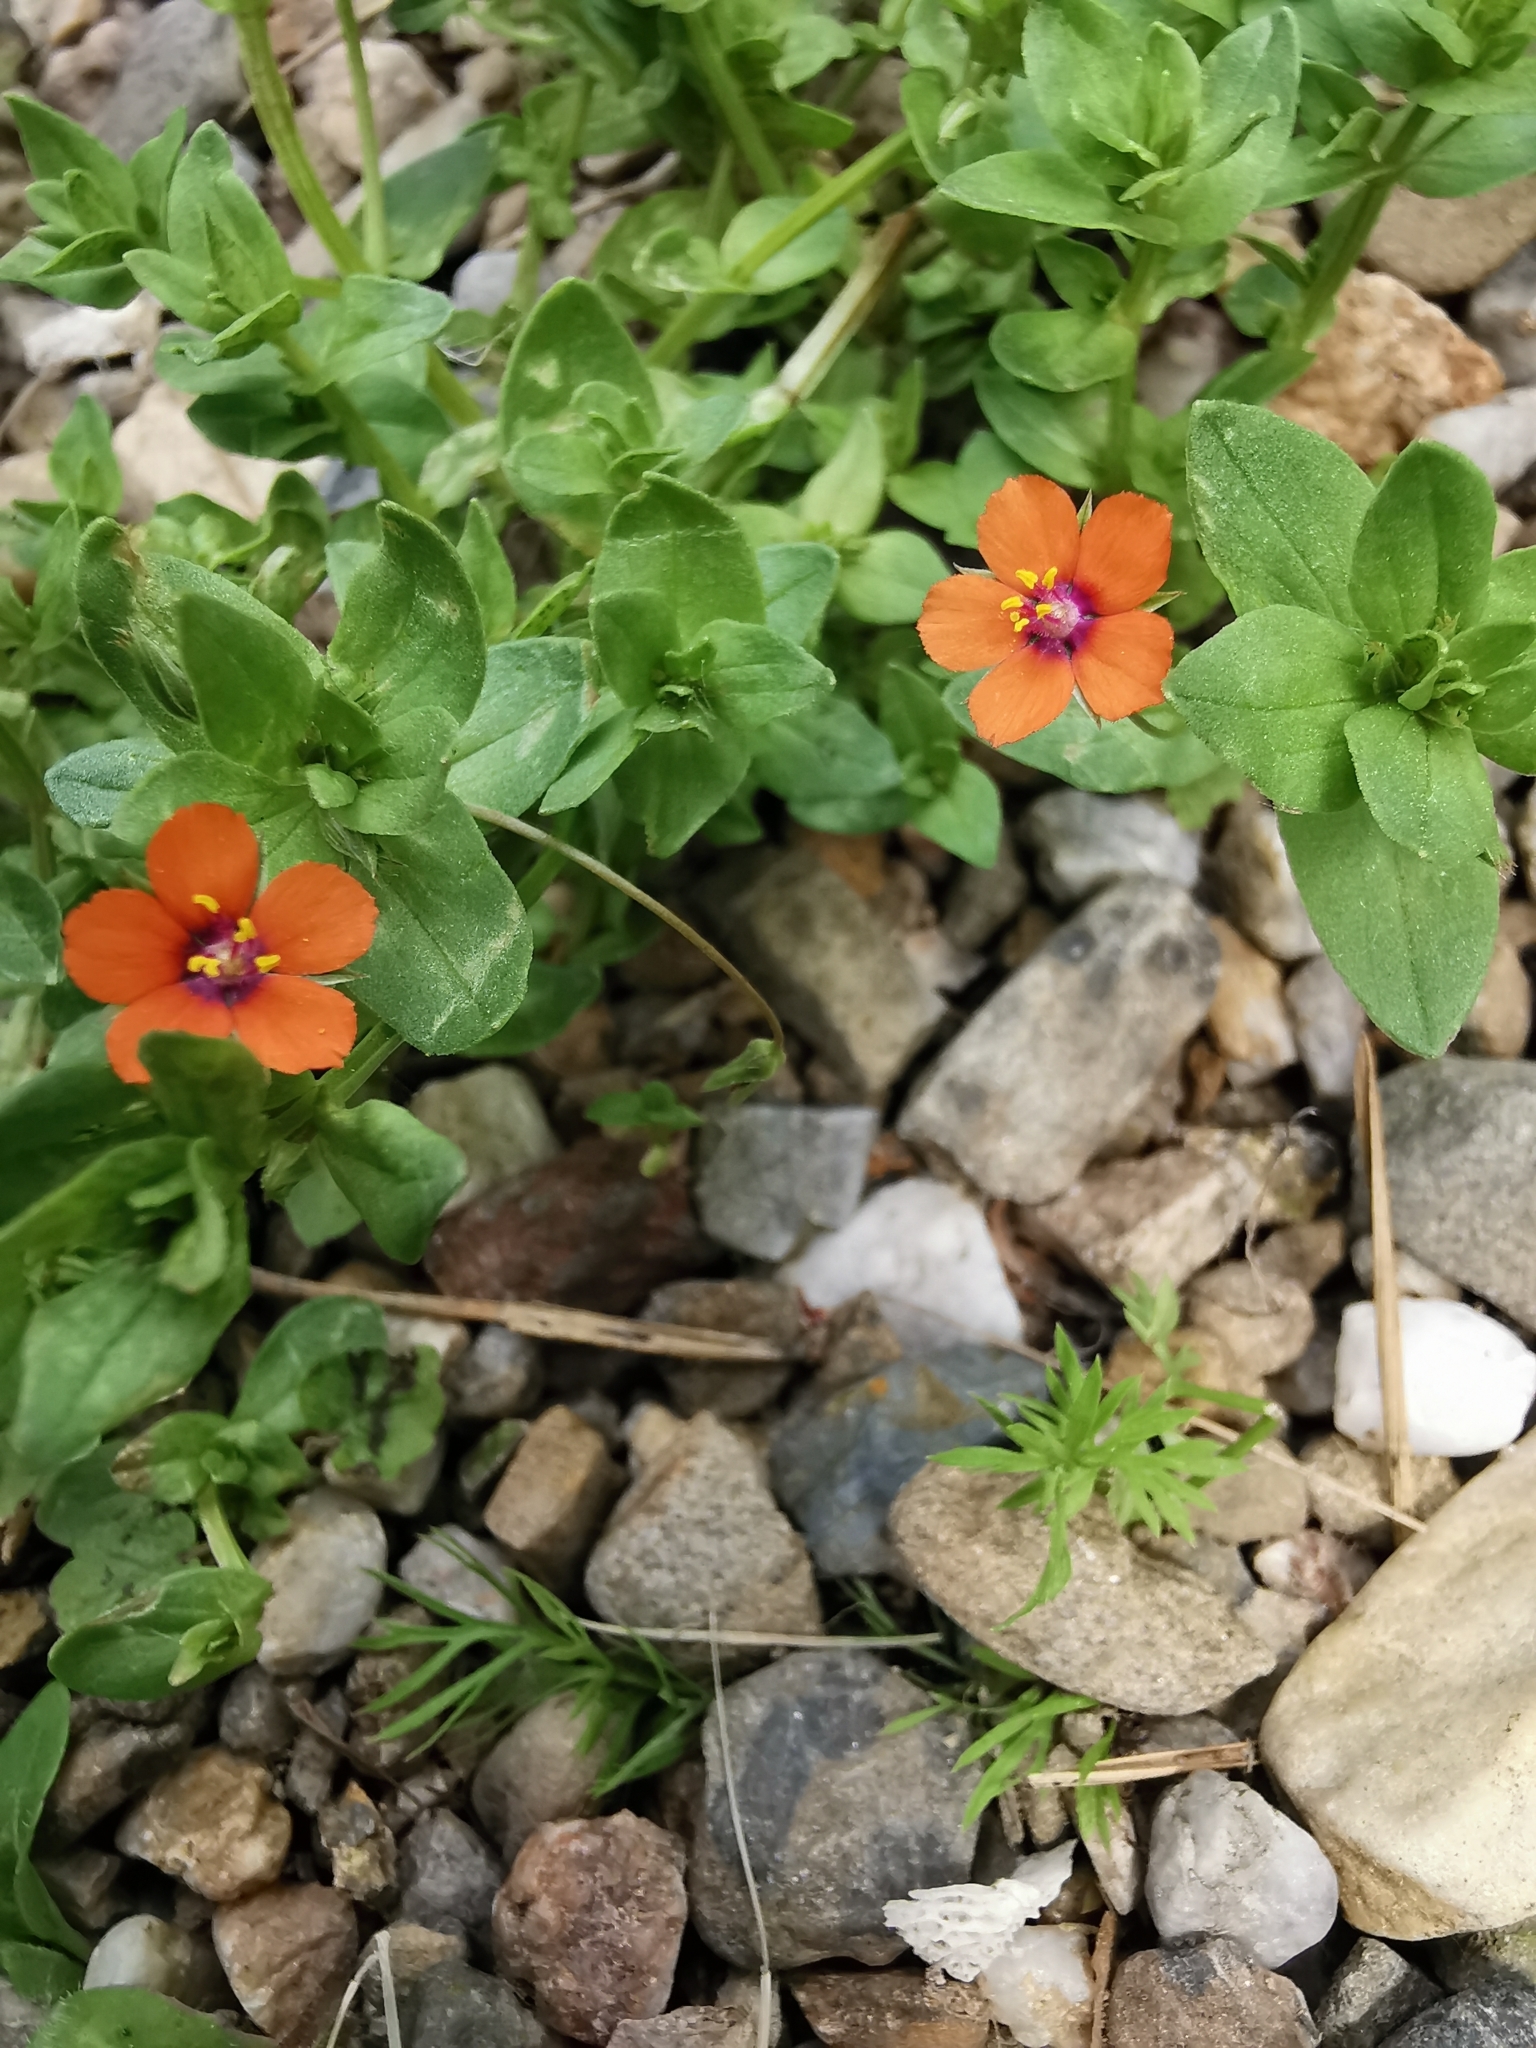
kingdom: Plantae
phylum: Tracheophyta
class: Magnoliopsida
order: Ericales
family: Primulaceae
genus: Lysimachia
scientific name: Lysimachia arvensis
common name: Scarlet pimpernel
